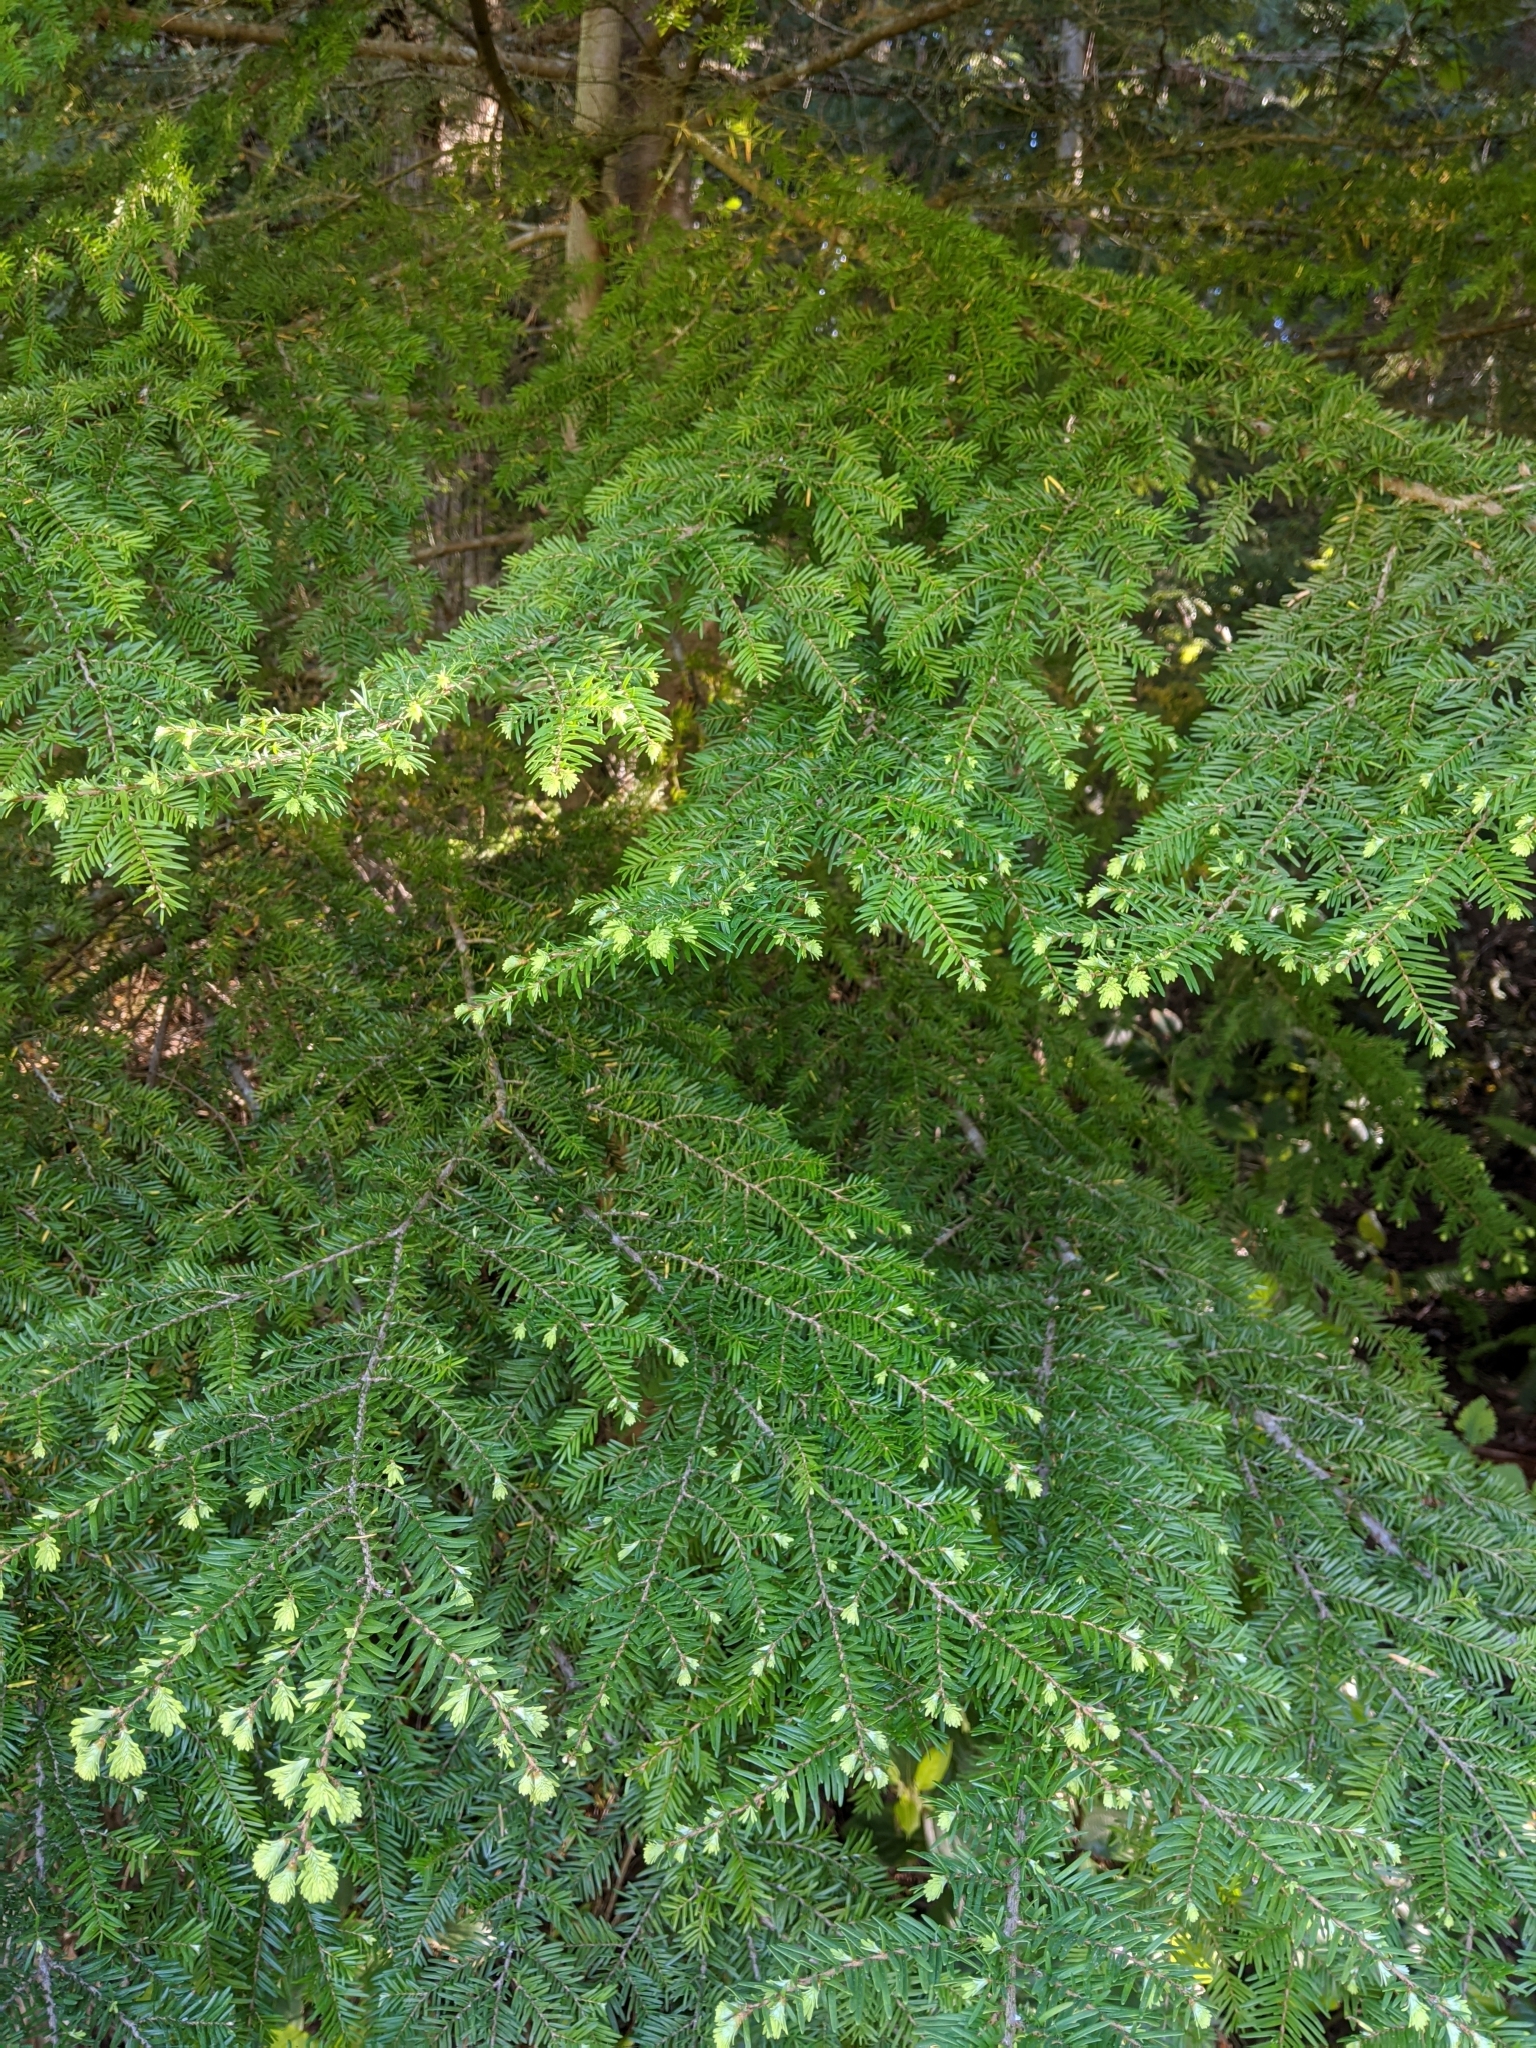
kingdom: Plantae
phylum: Tracheophyta
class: Pinopsida
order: Pinales
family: Pinaceae
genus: Tsuga
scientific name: Tsuga heterophylla
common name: Western hemlock
